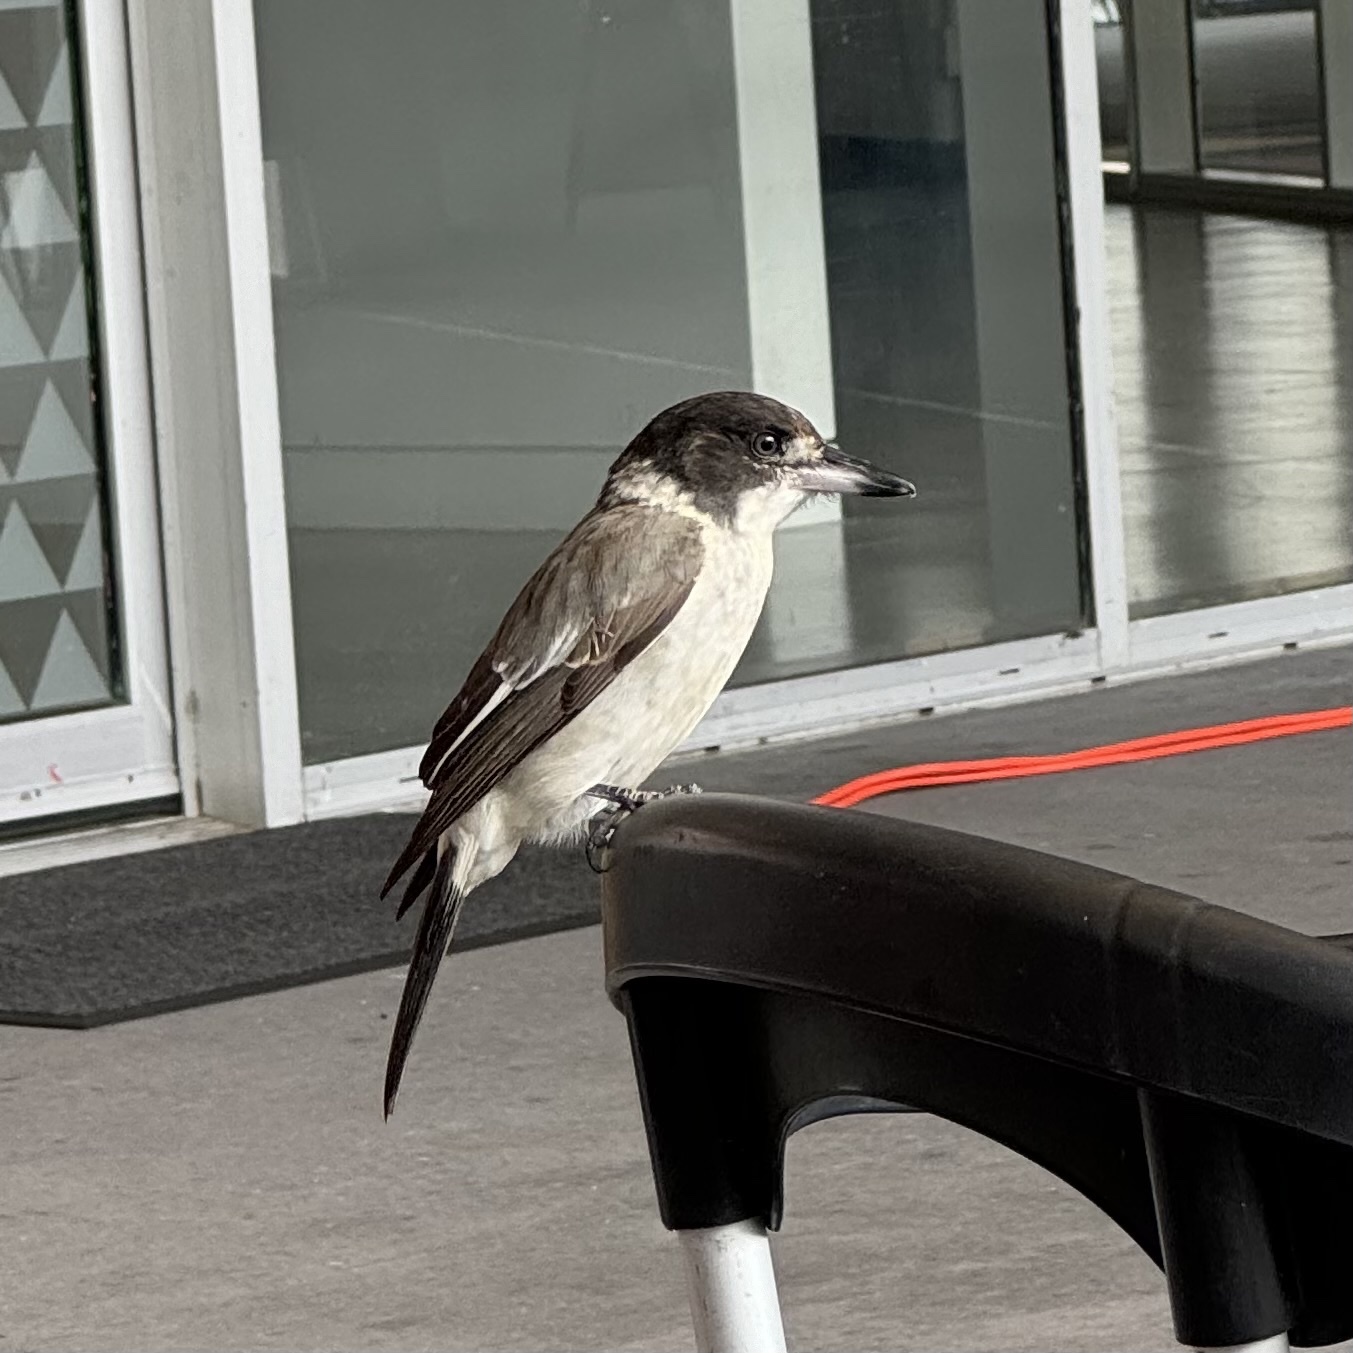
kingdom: Animalia
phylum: Chordata
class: Aves
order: Passeriformes
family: Cracticidae
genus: Cracticus
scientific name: Cracticus torquatus
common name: Grey butcherbird
